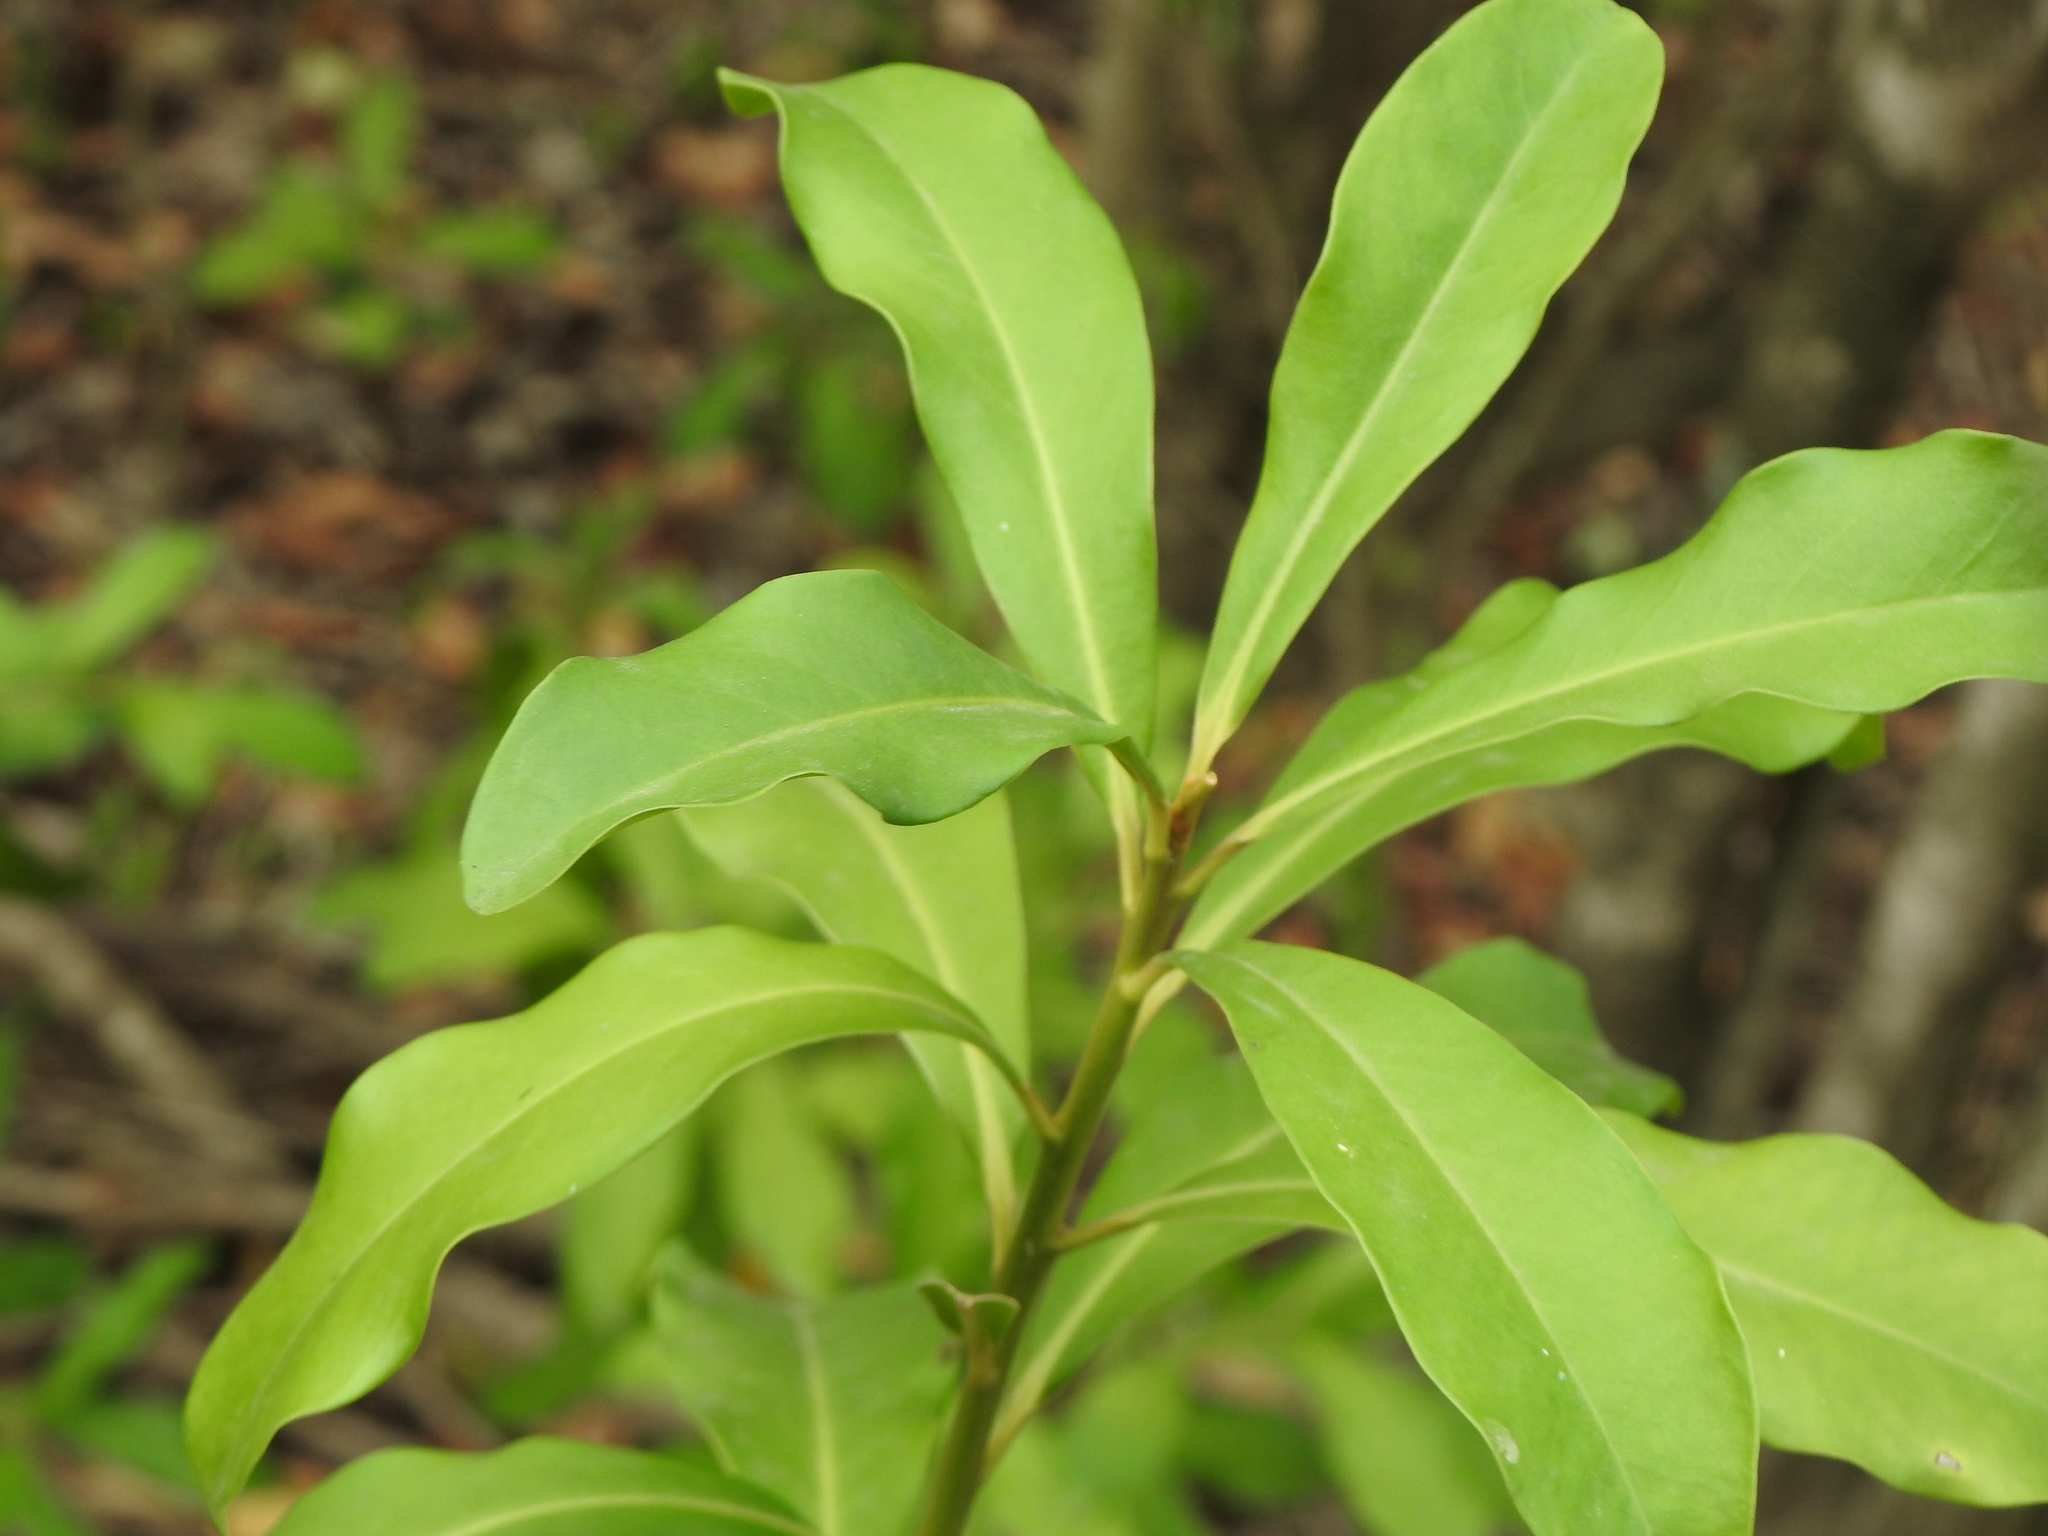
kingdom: Plantae
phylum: Tracheophyta
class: Magnoliopsida
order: Ericales
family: Primulaceae
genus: Myrsine
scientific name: Myrsine laetevirens
